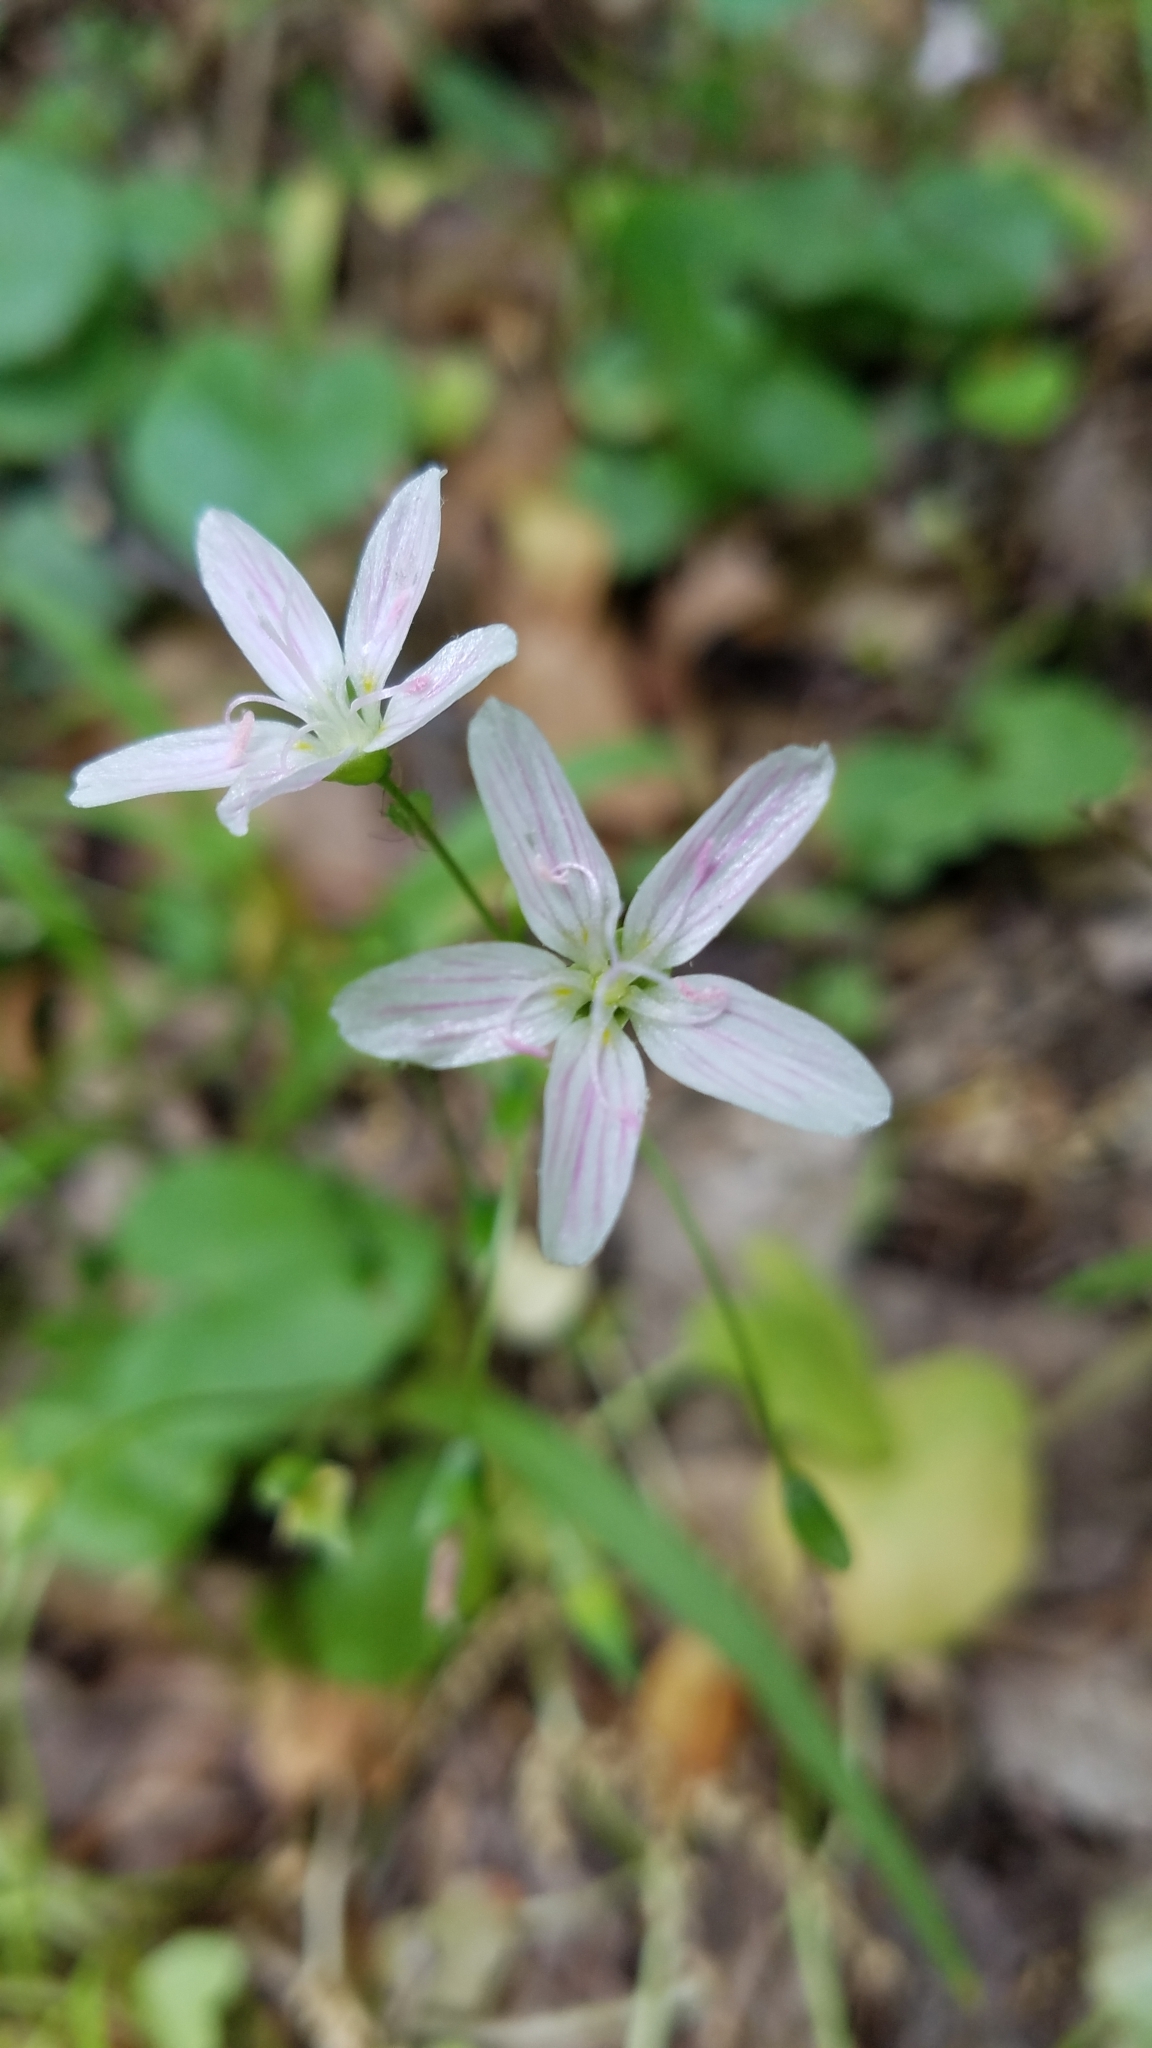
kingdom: Plantae
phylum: Tracheophyta
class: Magnoliopsida
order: Caryophyllales
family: Montiaceae
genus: Claytonia
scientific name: Claytonia virginica
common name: Virginia springbeauty
